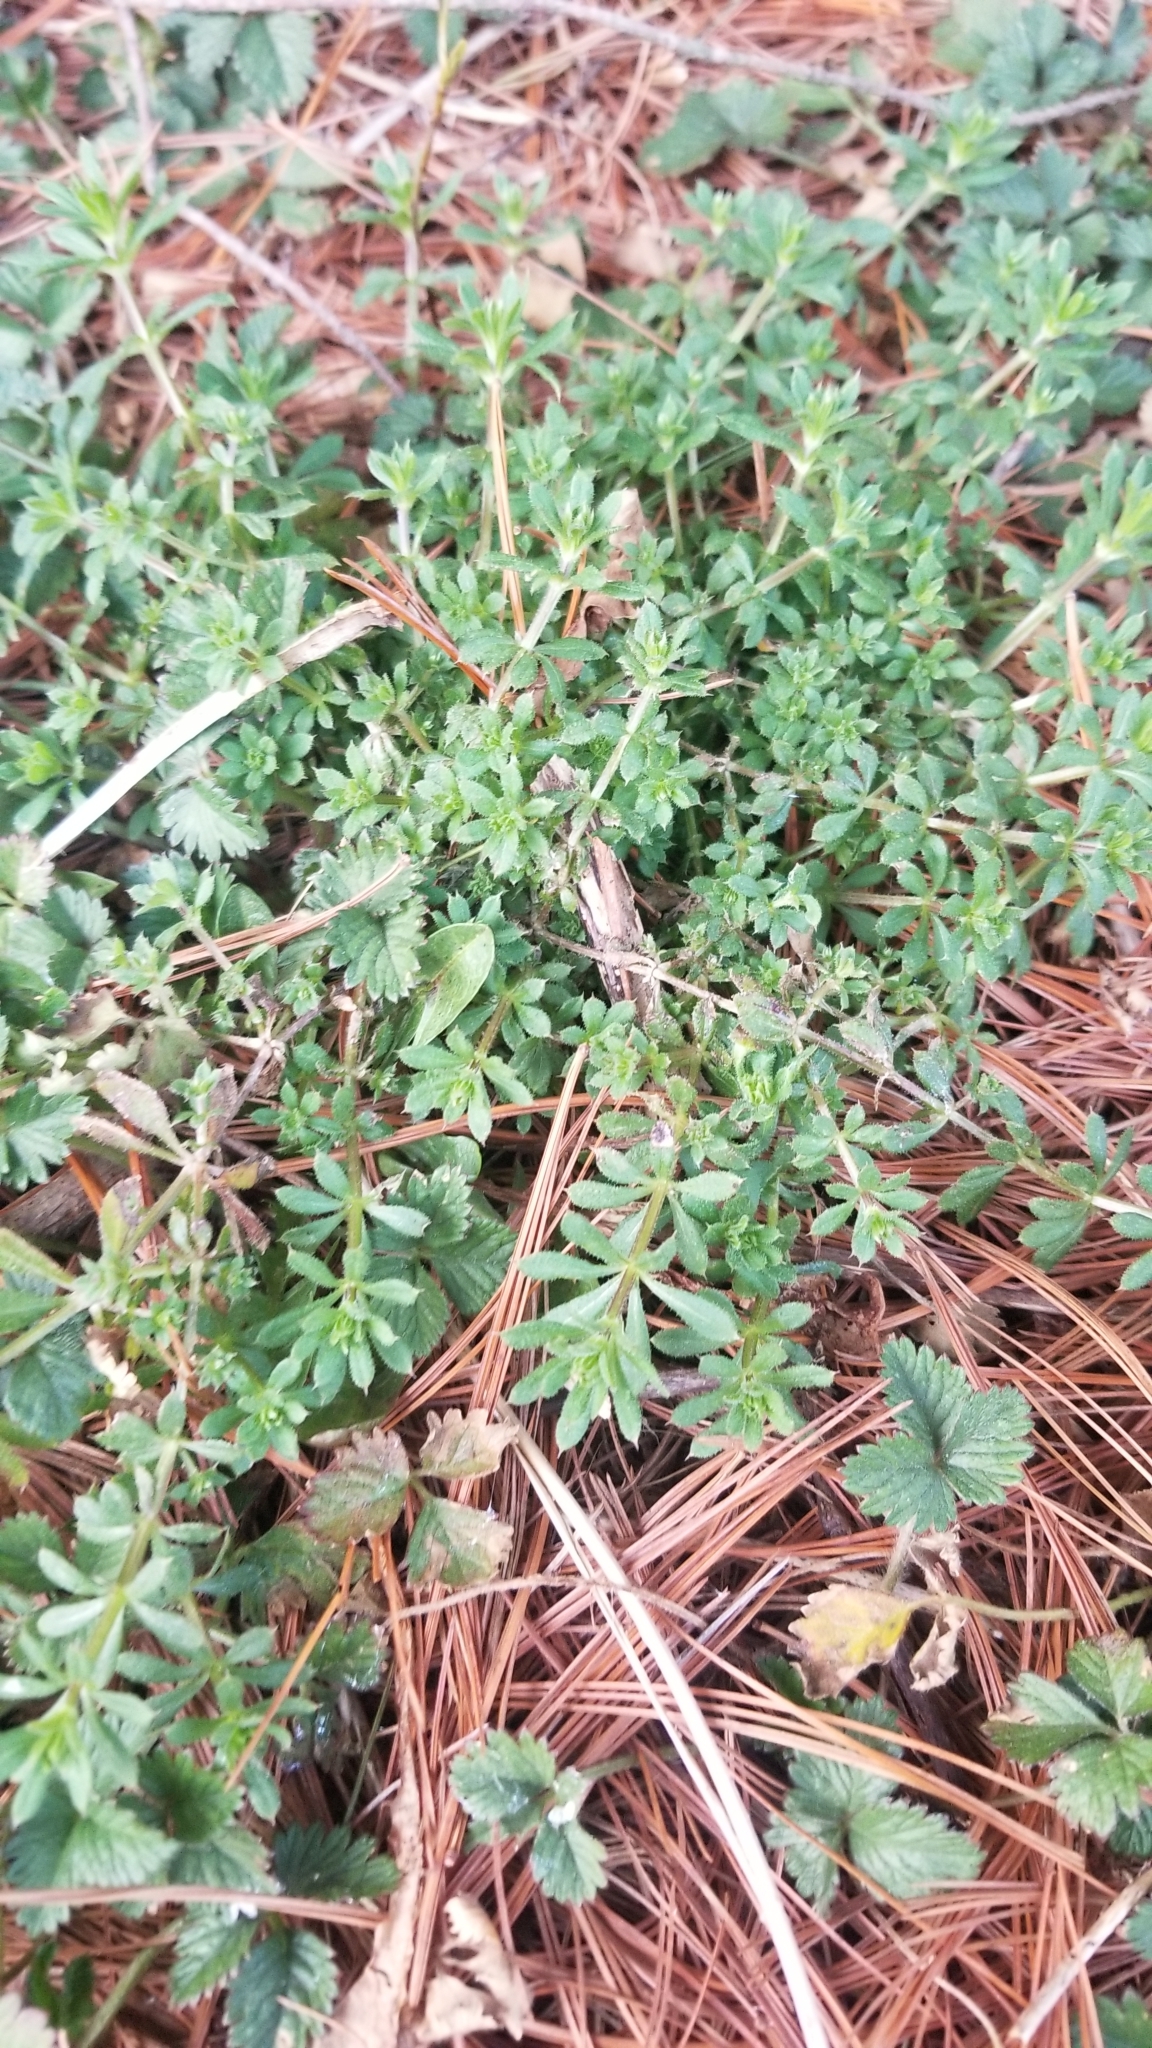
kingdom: Plantae
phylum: Tracheophyta
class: Magnoliopsida
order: Gentianales
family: Rubiaceae
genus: Galium
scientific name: Galium aparine
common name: Cleavers
